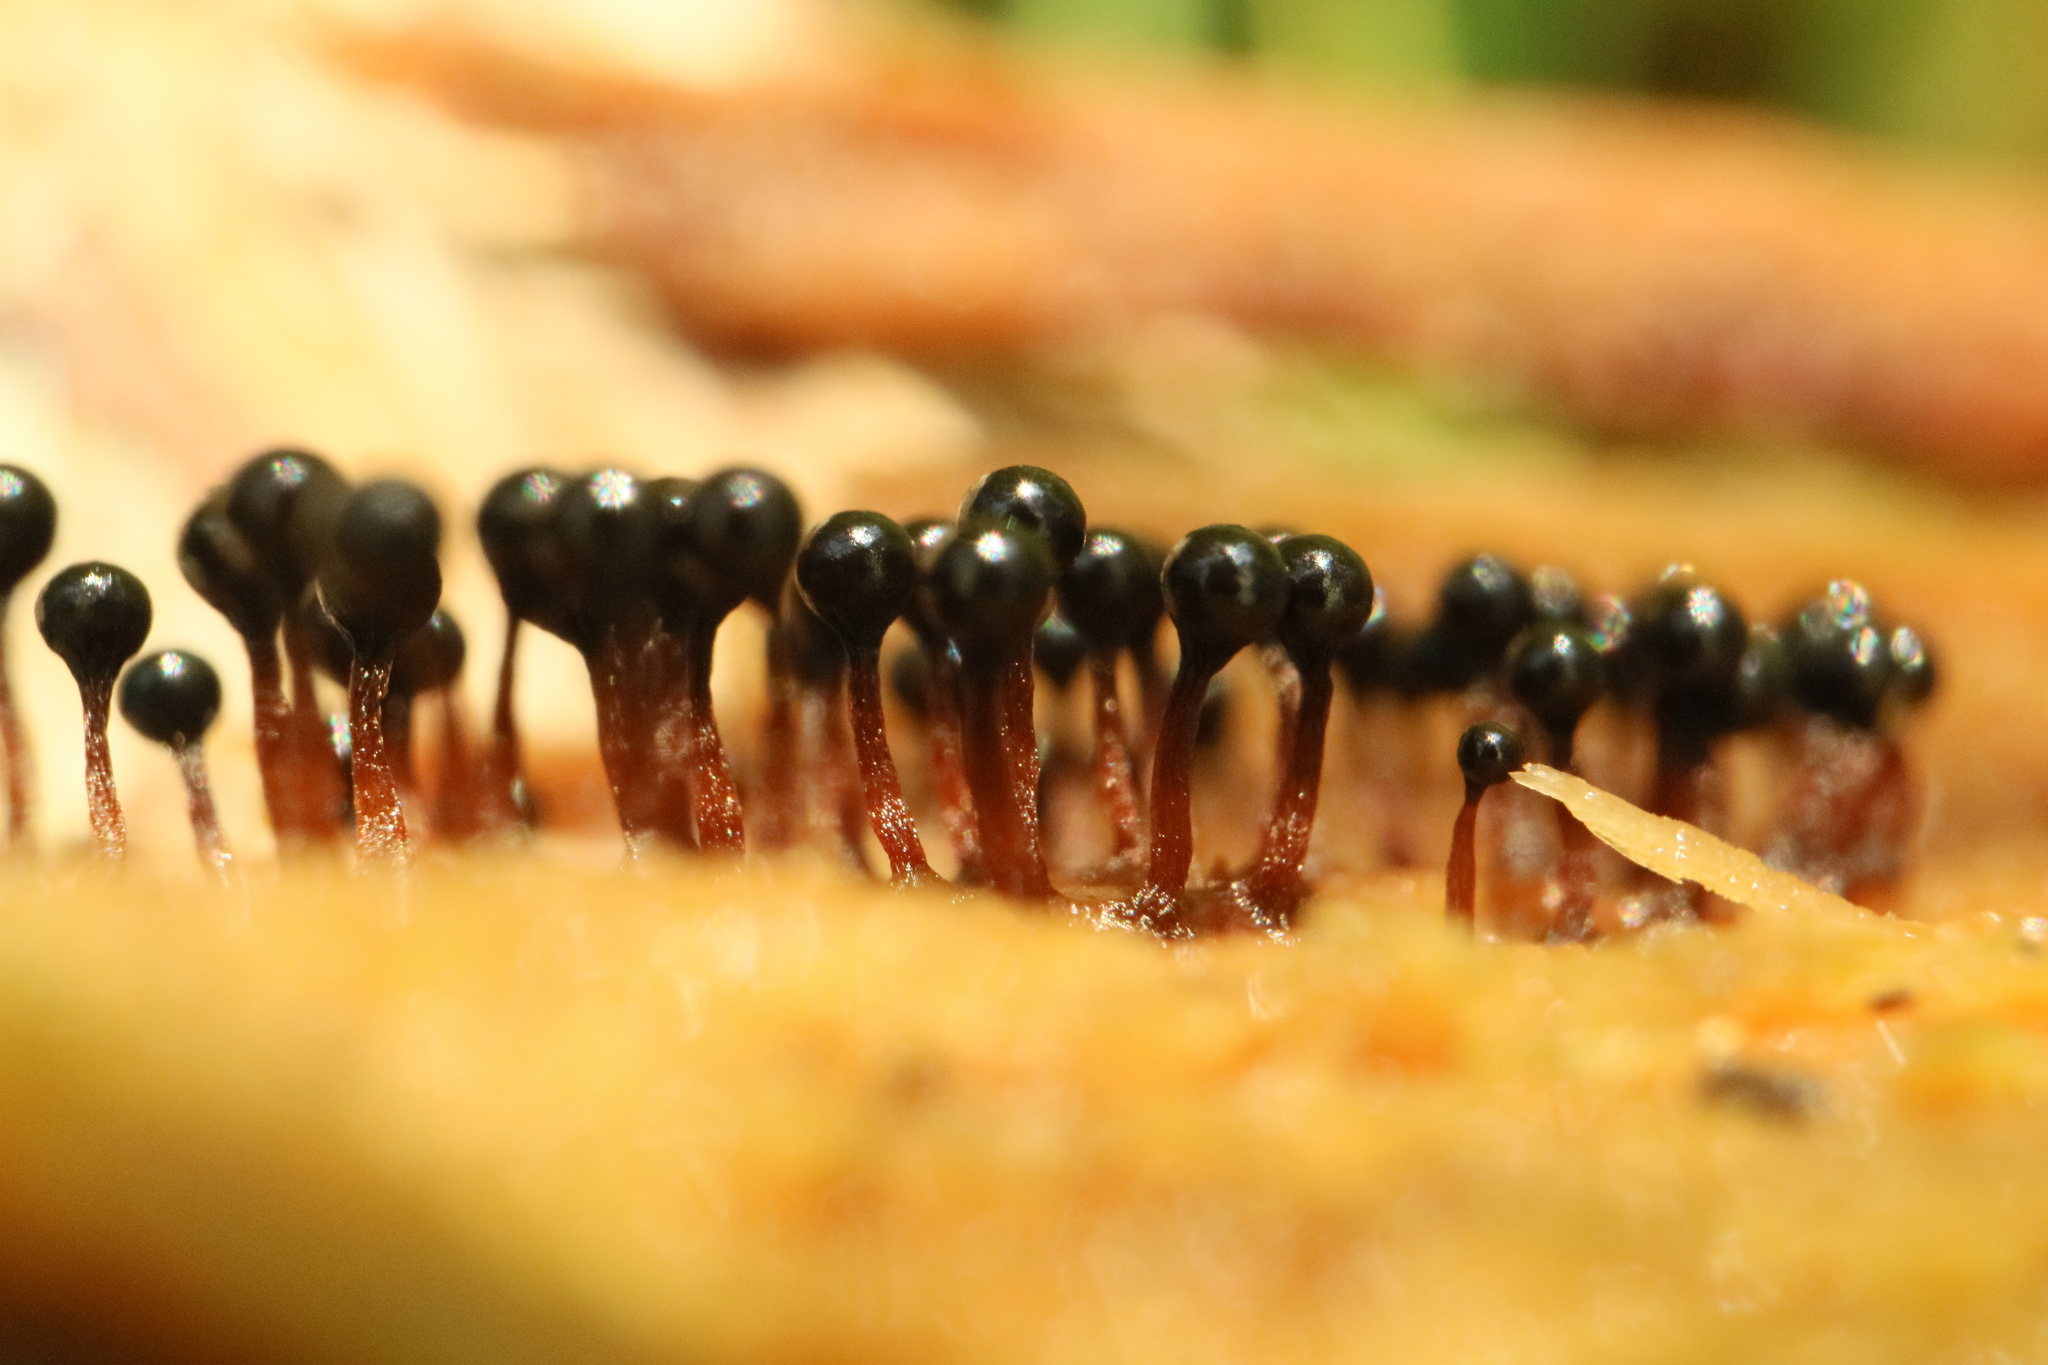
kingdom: Protozoa
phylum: Mycetozoa
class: Myxomycetes
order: Trichiales
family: Trichiaceae
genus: Metatrichia
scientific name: Metatrichia floriformis
